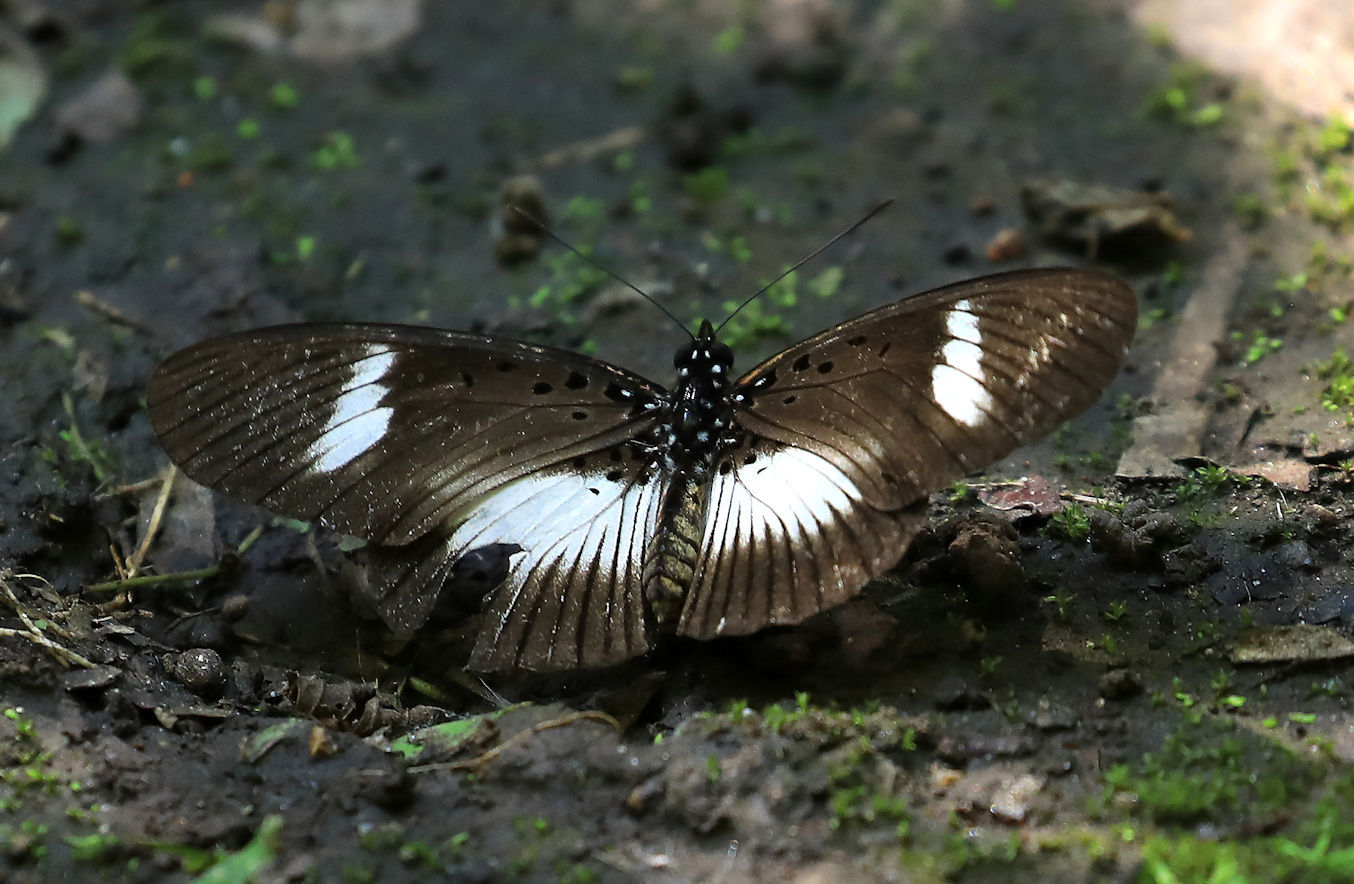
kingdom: Animalia
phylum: Arthropoda
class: Insecta
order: Lepidoptera
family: Nymphalidae
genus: Chloropoea
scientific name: Chloropoea eurytus
